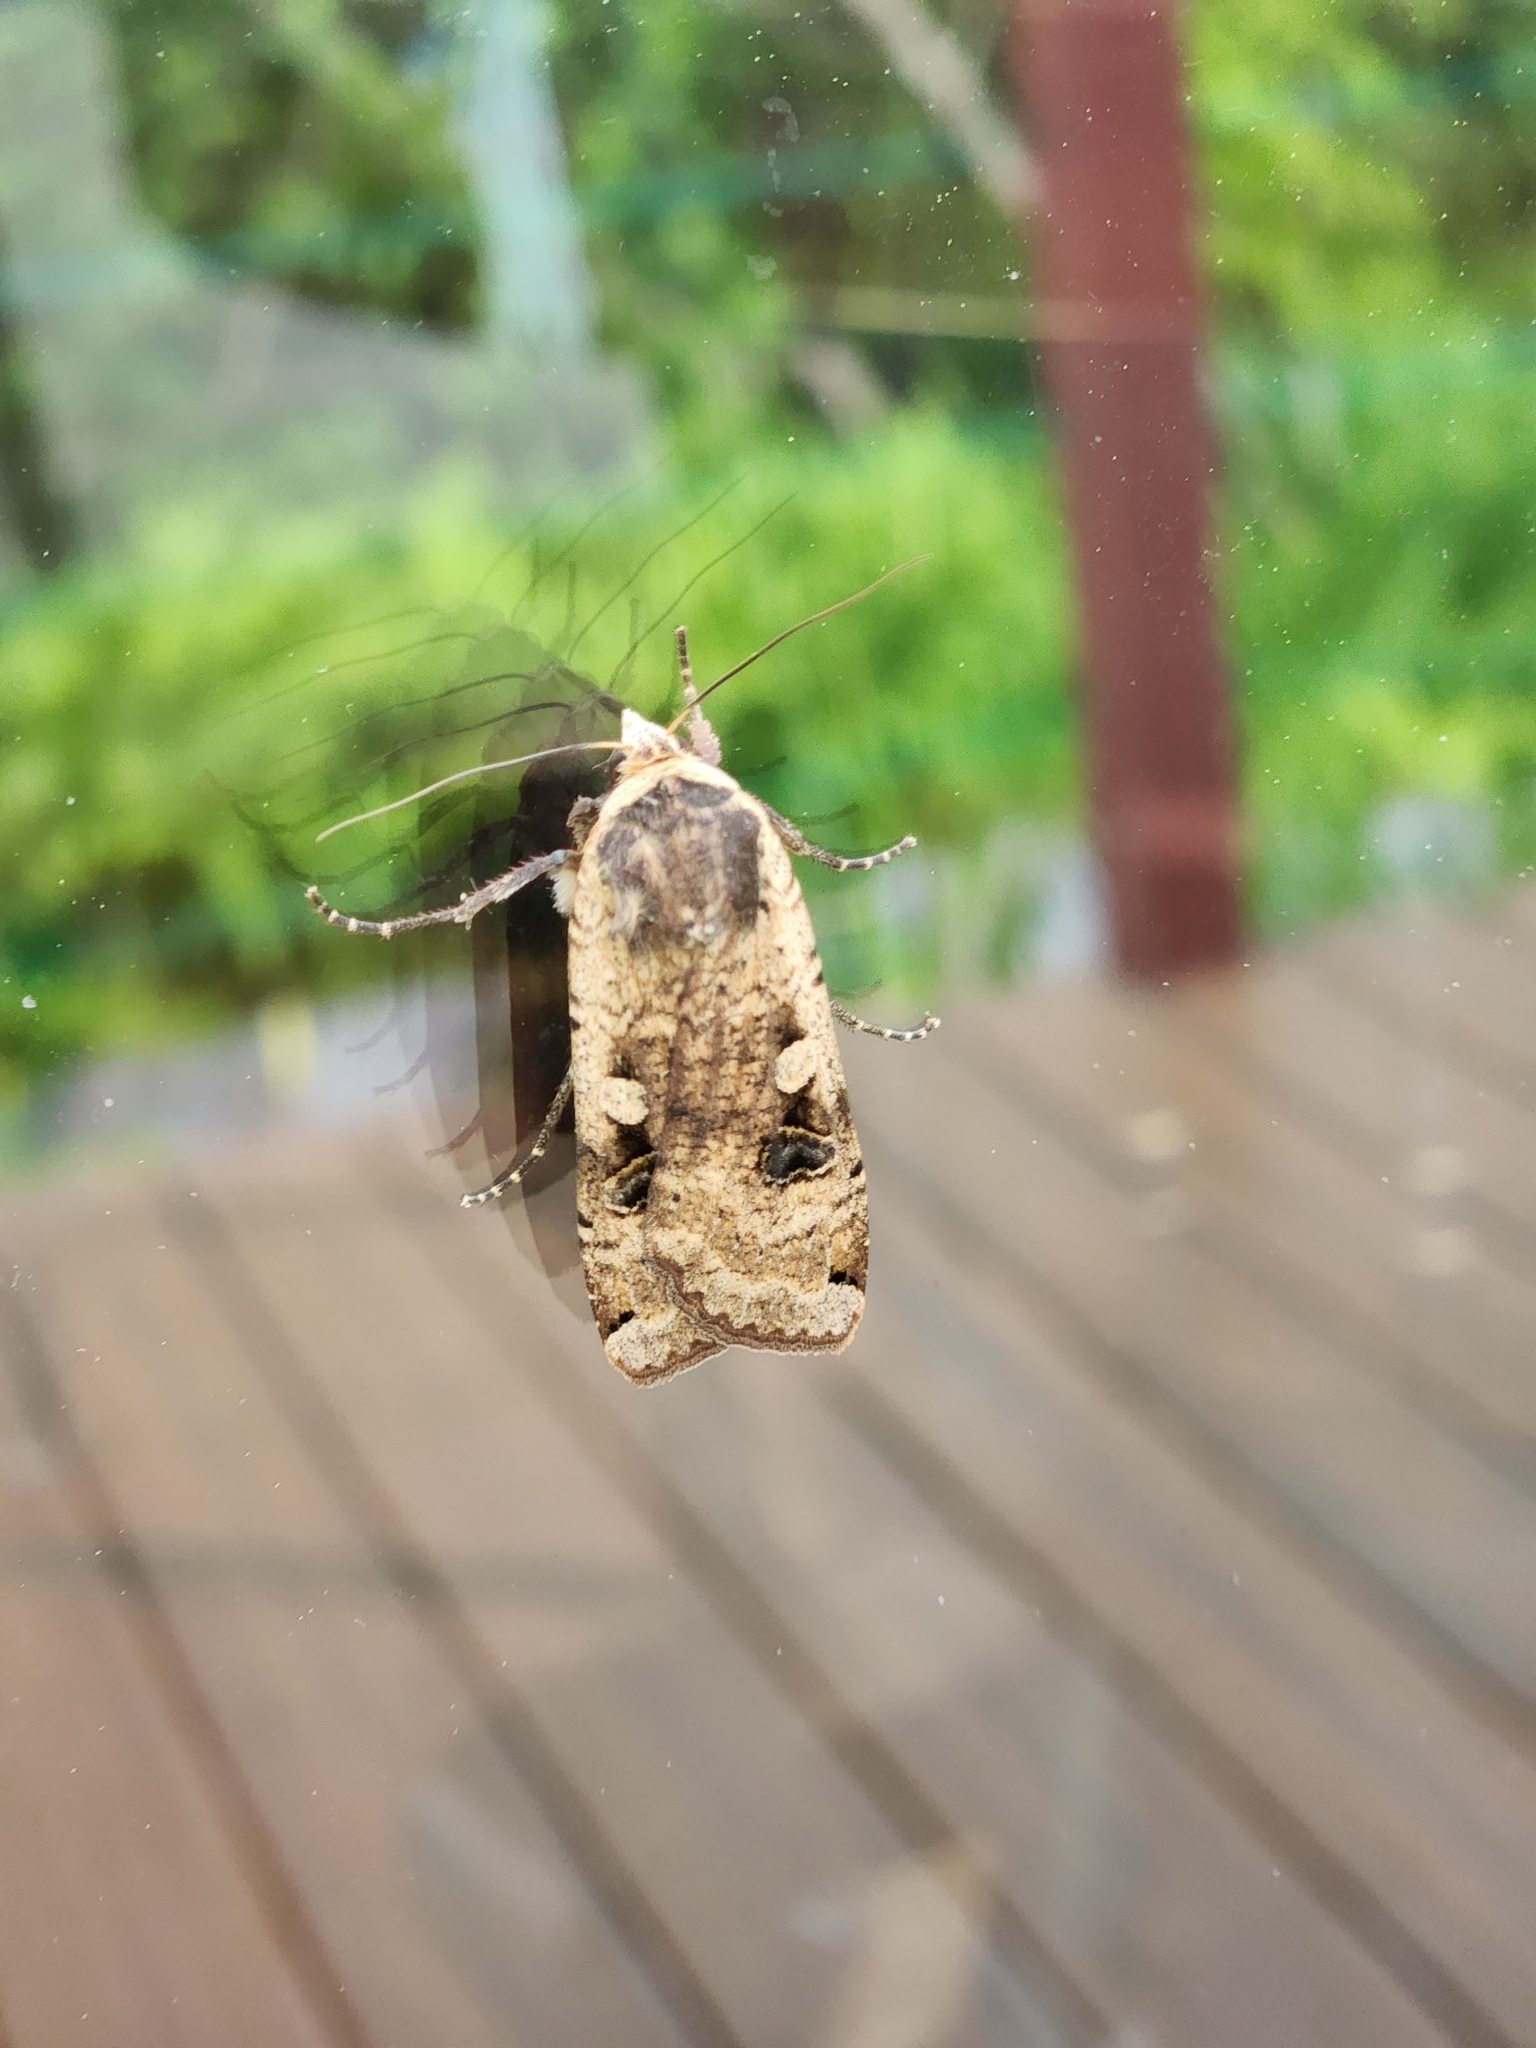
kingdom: Animalia
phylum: Arthropoda
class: Insecta
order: Lepidoptera
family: Noctuidae
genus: Noctua
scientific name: Noctua pronuba
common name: Large yellow underwing
